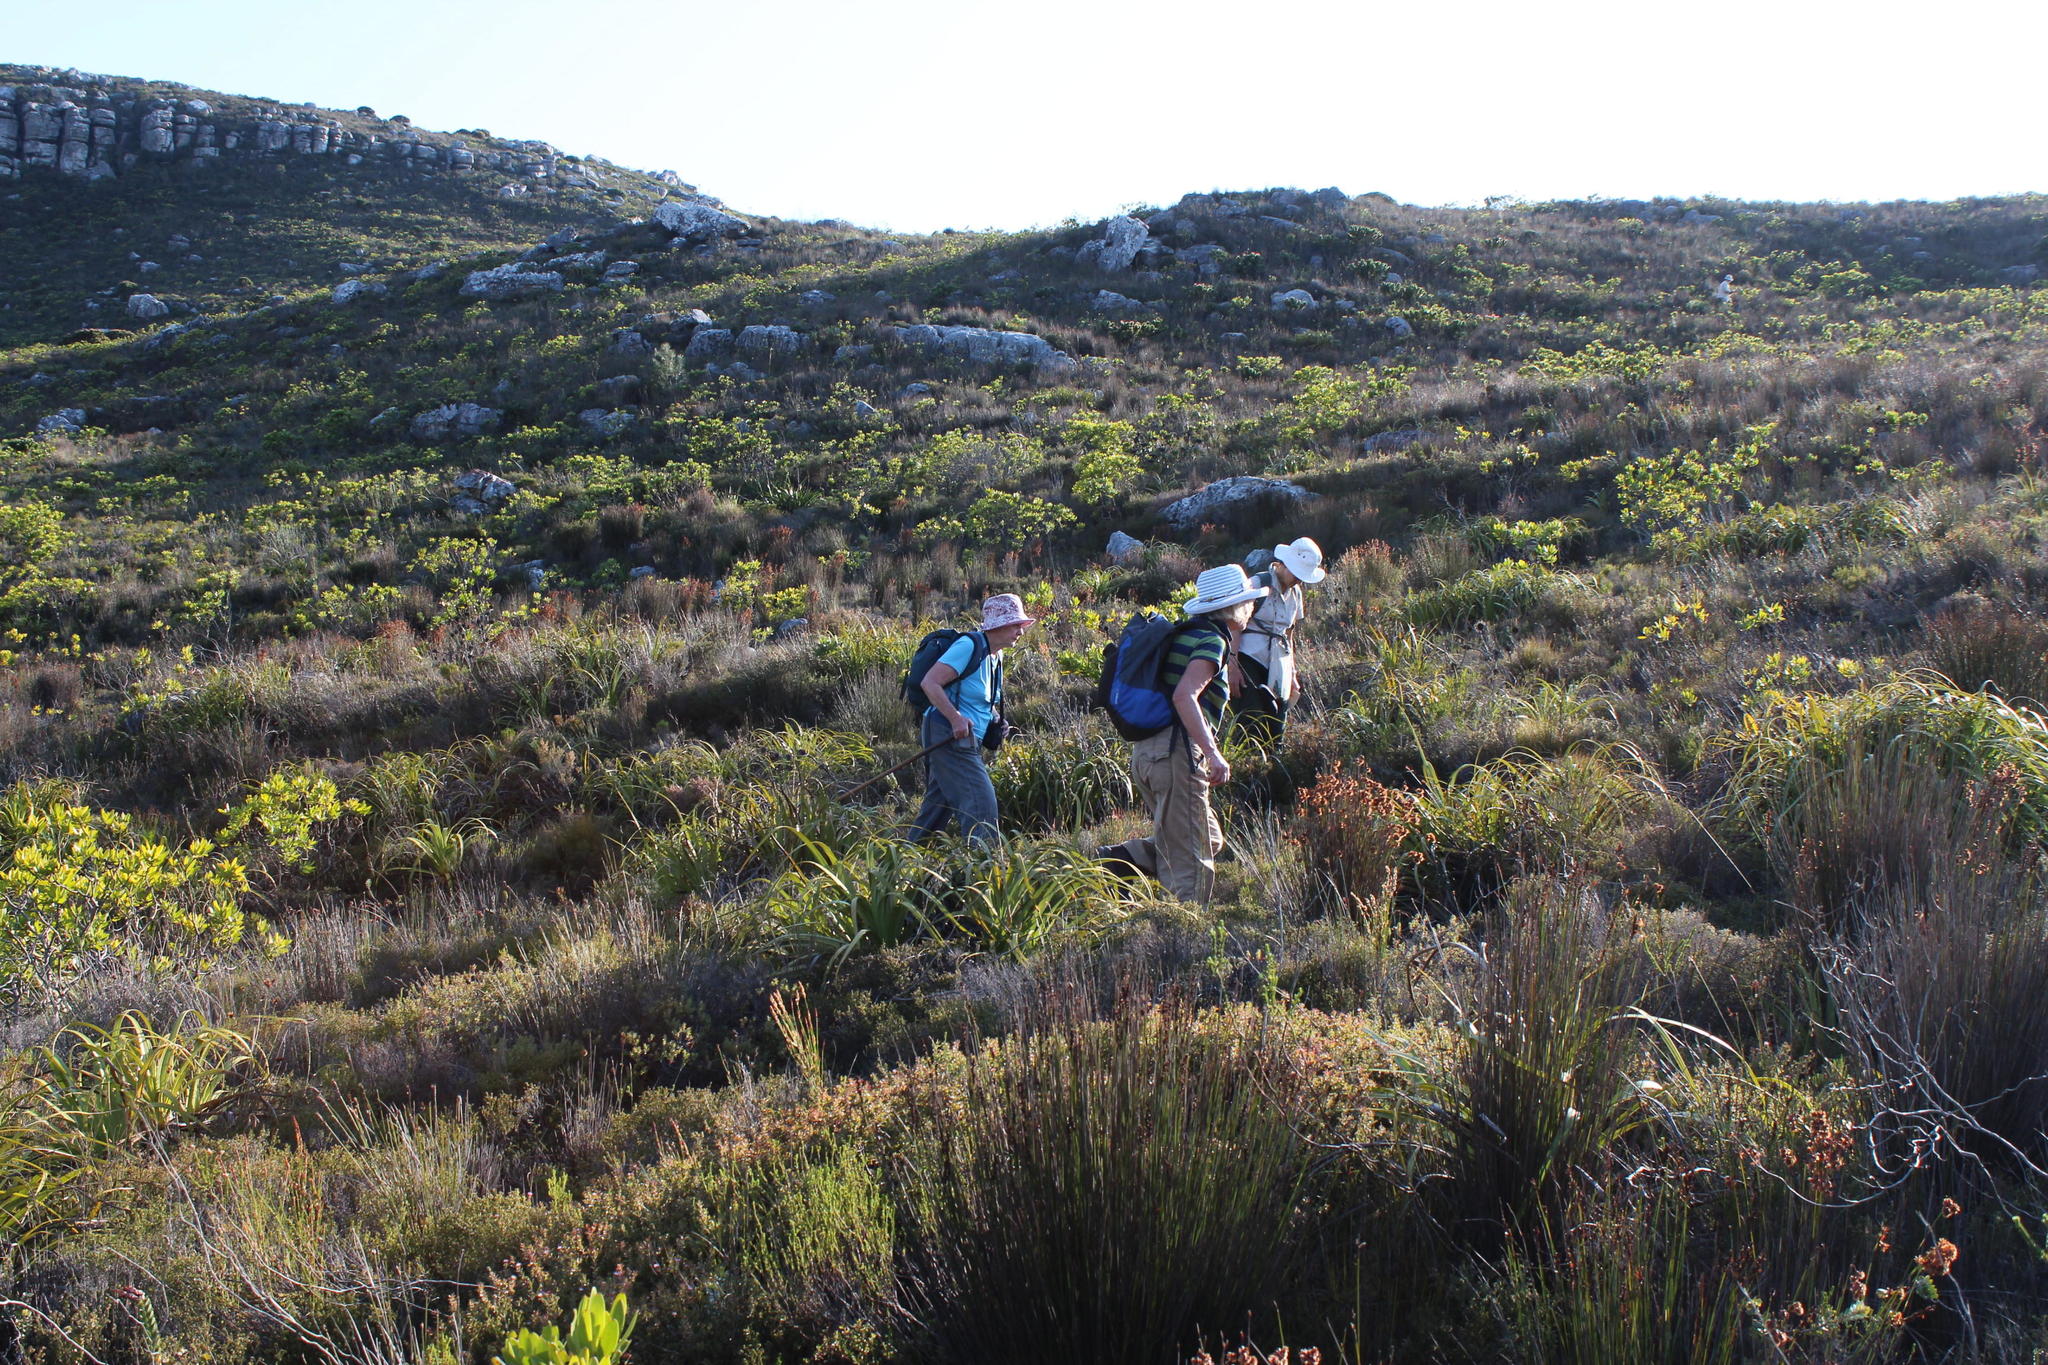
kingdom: Plantae
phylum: Tracheophyta
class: Magnoliopsida
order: Proteales
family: Proteaceae
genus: Leucadendron
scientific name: Leucadendron laureolum
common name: Golden sunshinebush
